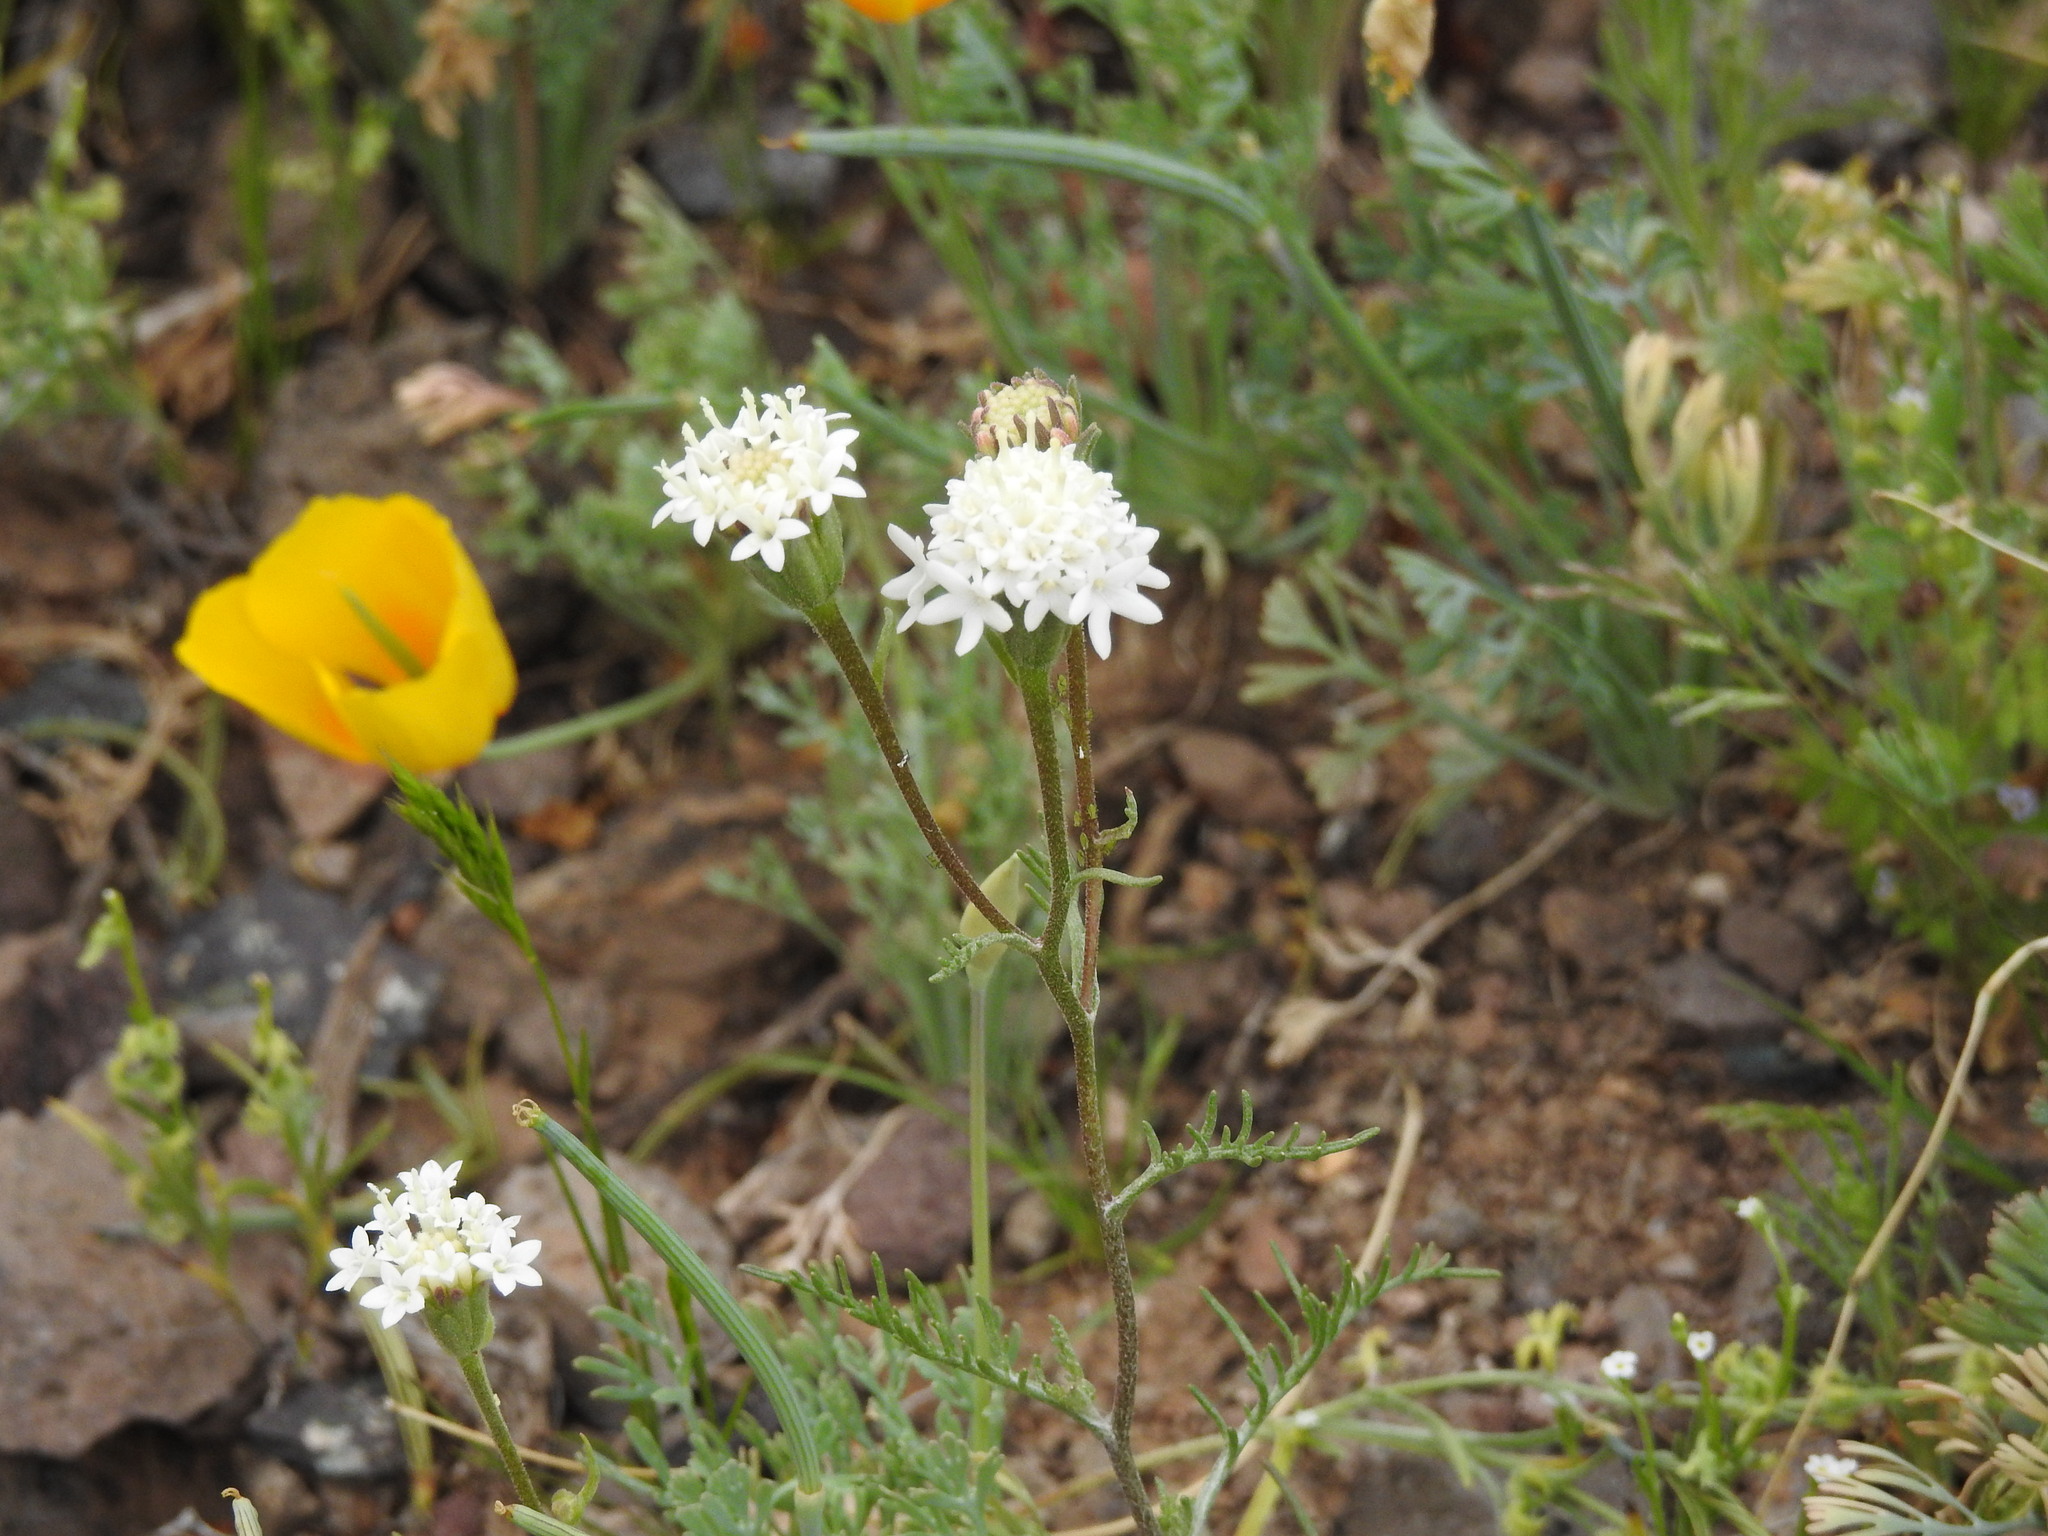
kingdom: Plantae
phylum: Tracheophyta
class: Magnoliopsida
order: Asterales
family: Asteraceae
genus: Chaenactis
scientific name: Chaenactis stevioides
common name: Desert pincushion
